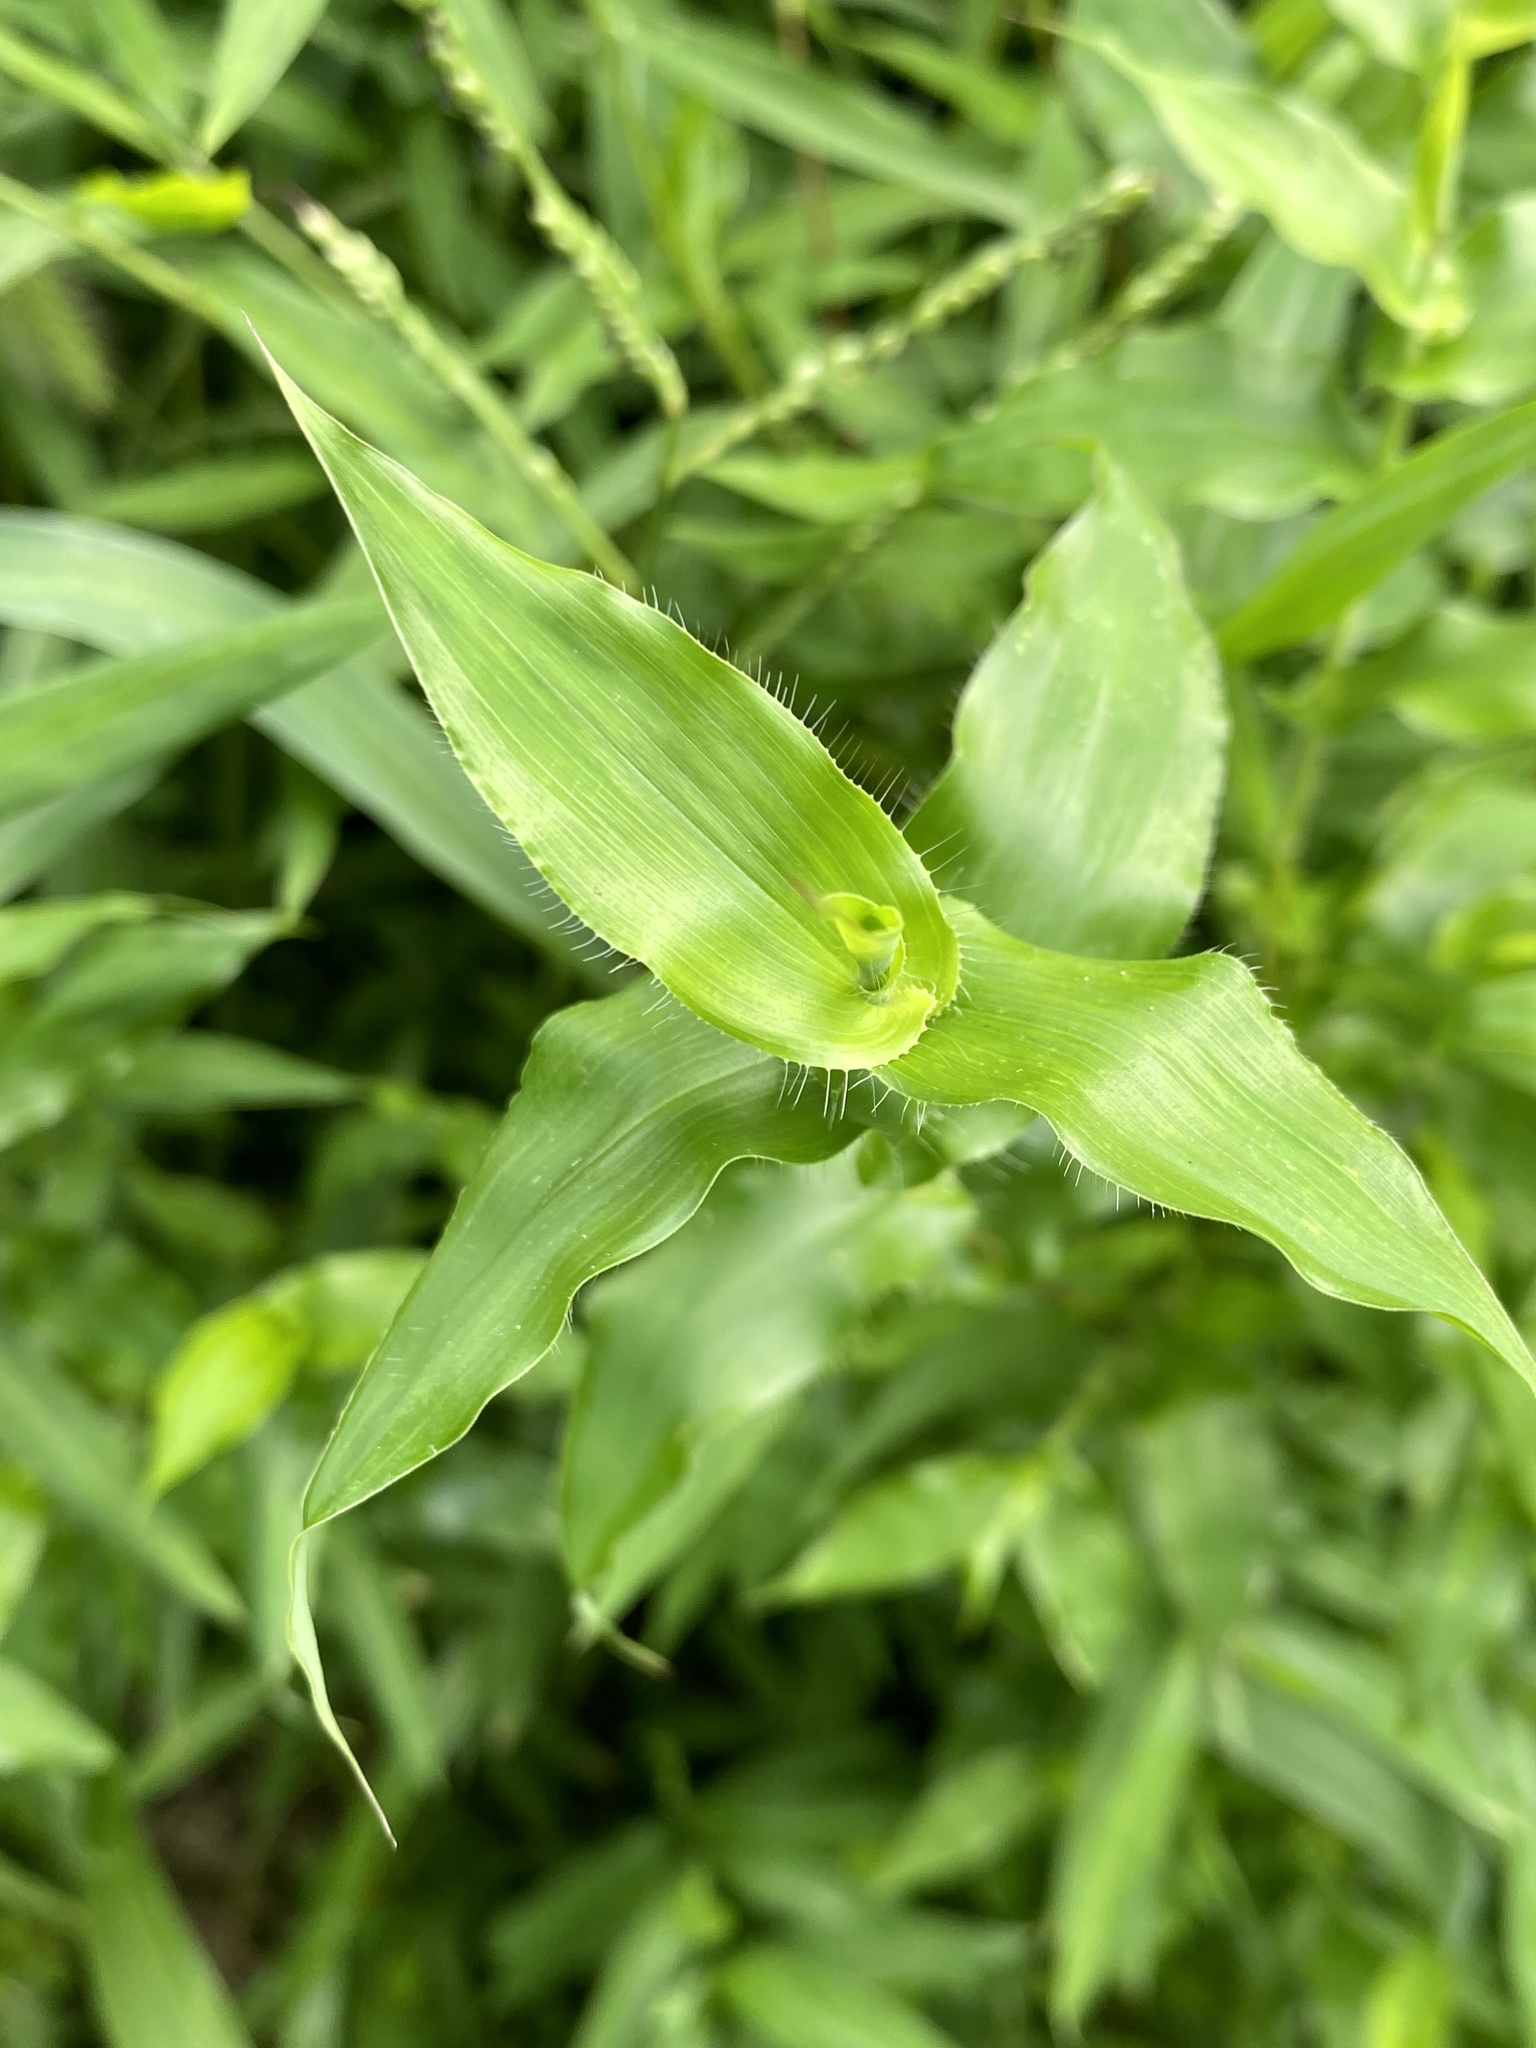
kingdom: Plantae
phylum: Tracheophyta
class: Liliopsida
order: Poales
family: Poaceae
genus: Arthraxon
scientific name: Arthraxon hispidus
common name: Small carpgrass
